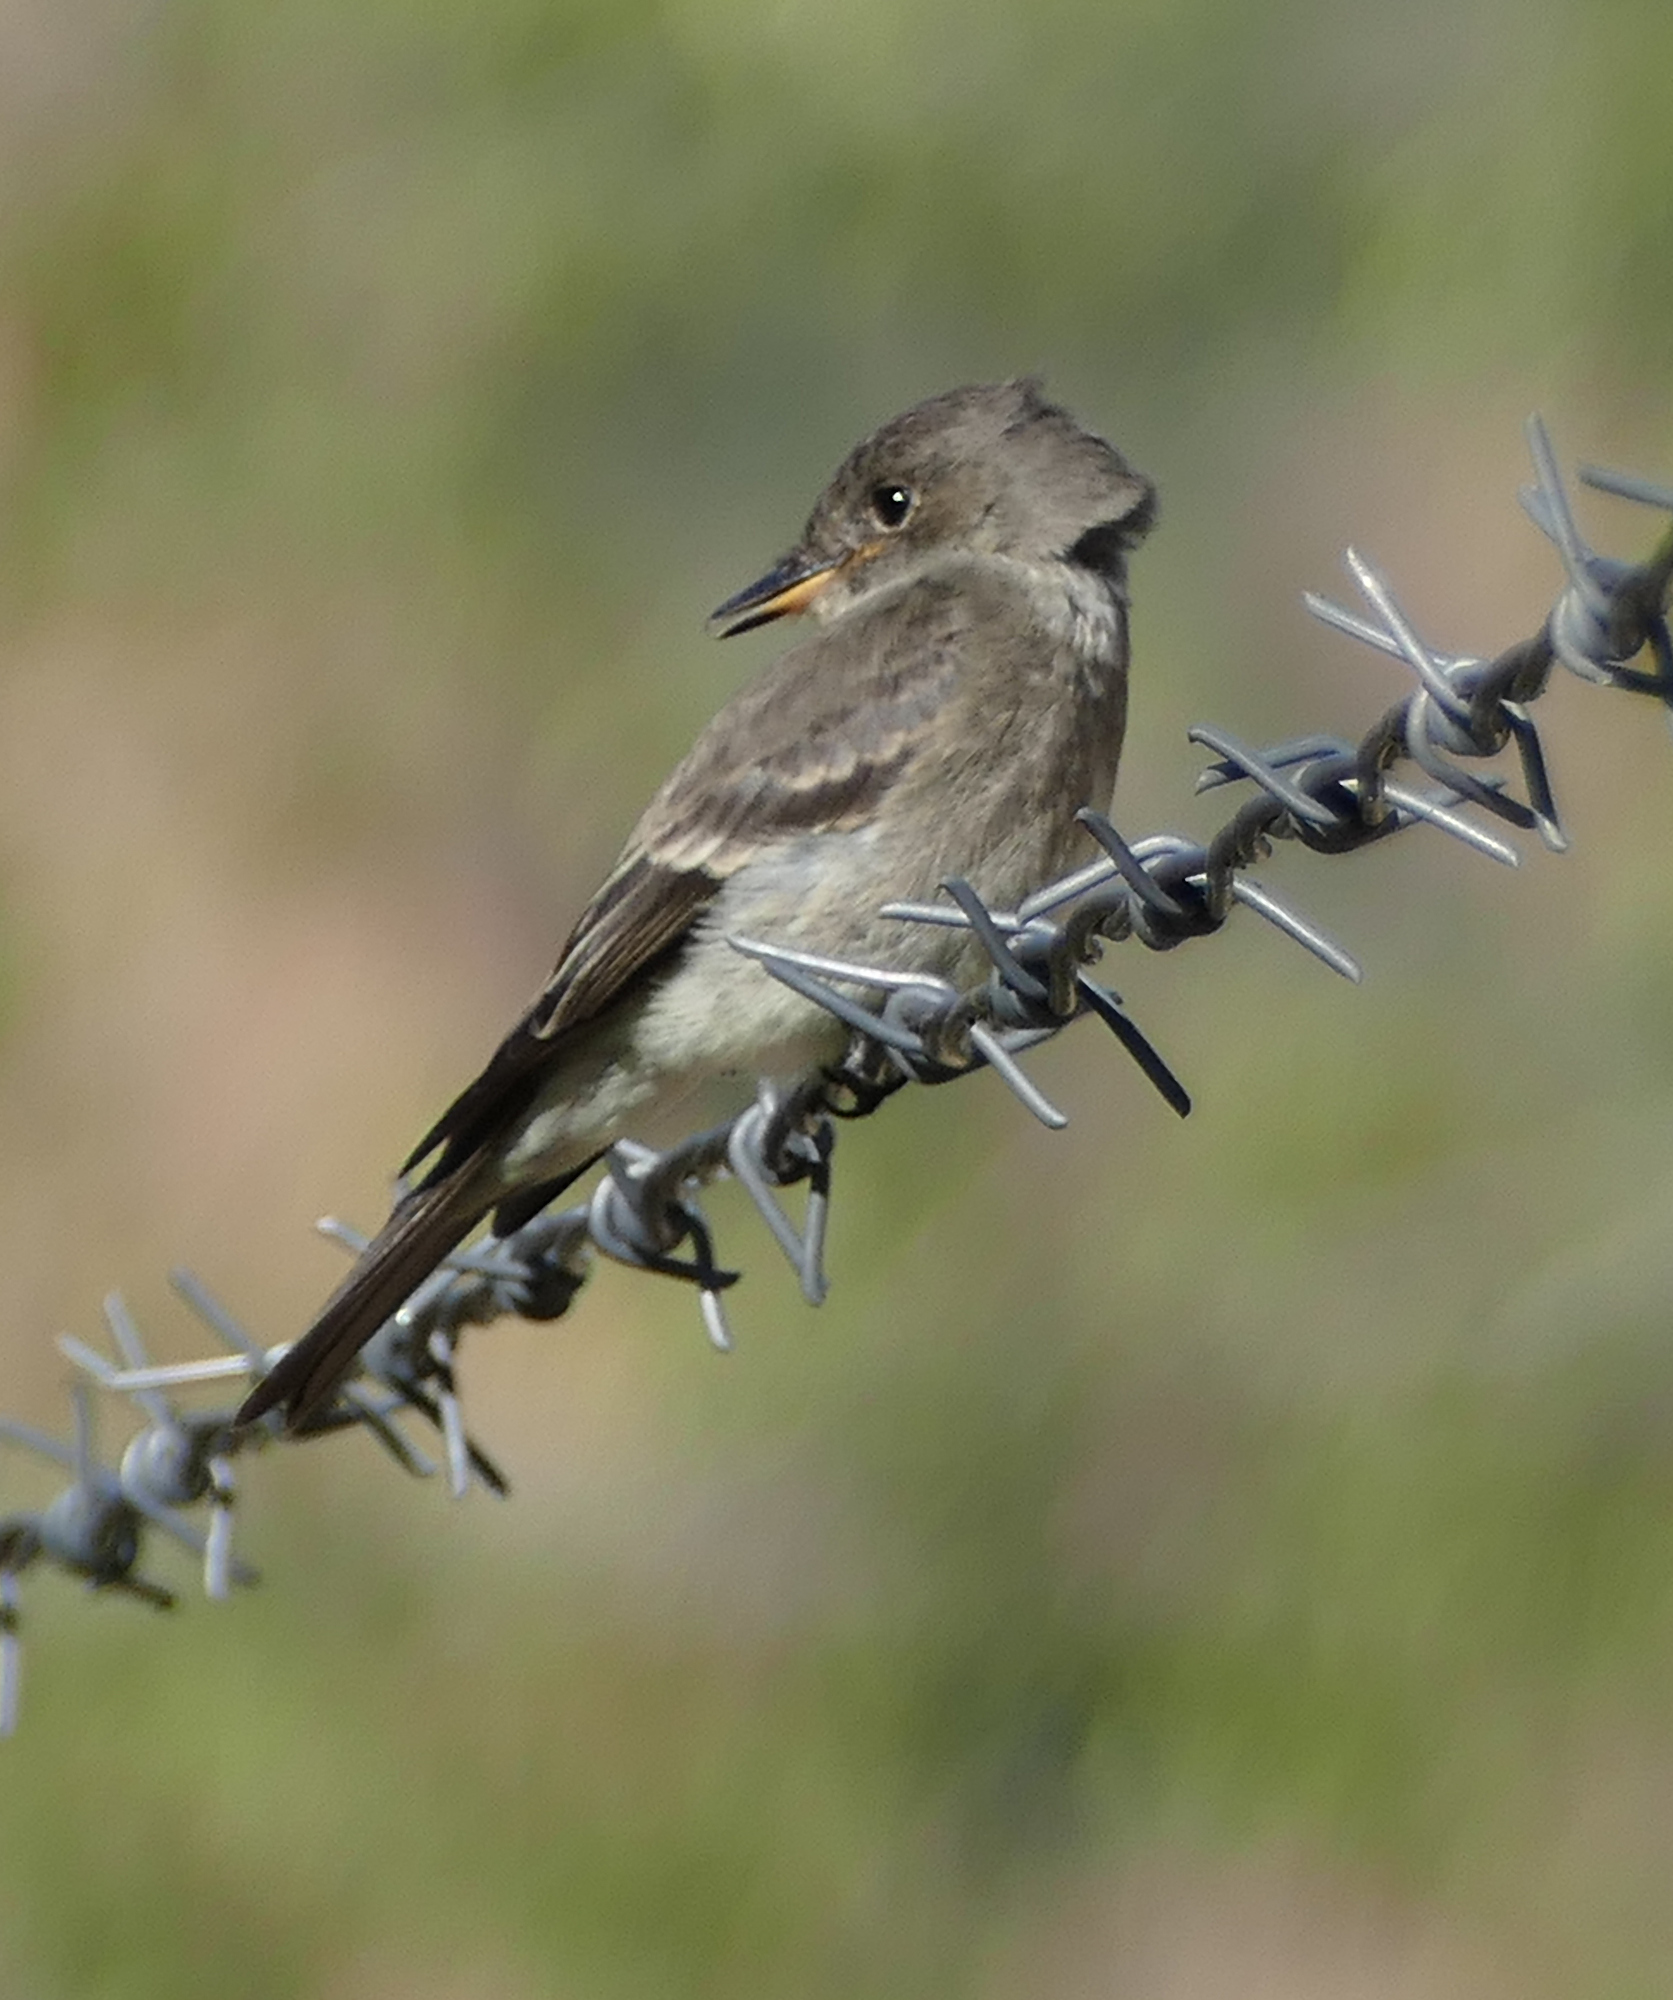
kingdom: Animalia
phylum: Chordata
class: Aves
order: Passeriformes
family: Tyrannidae
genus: Contopus
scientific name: Contopus sordidulus
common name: Western wood-pewee
